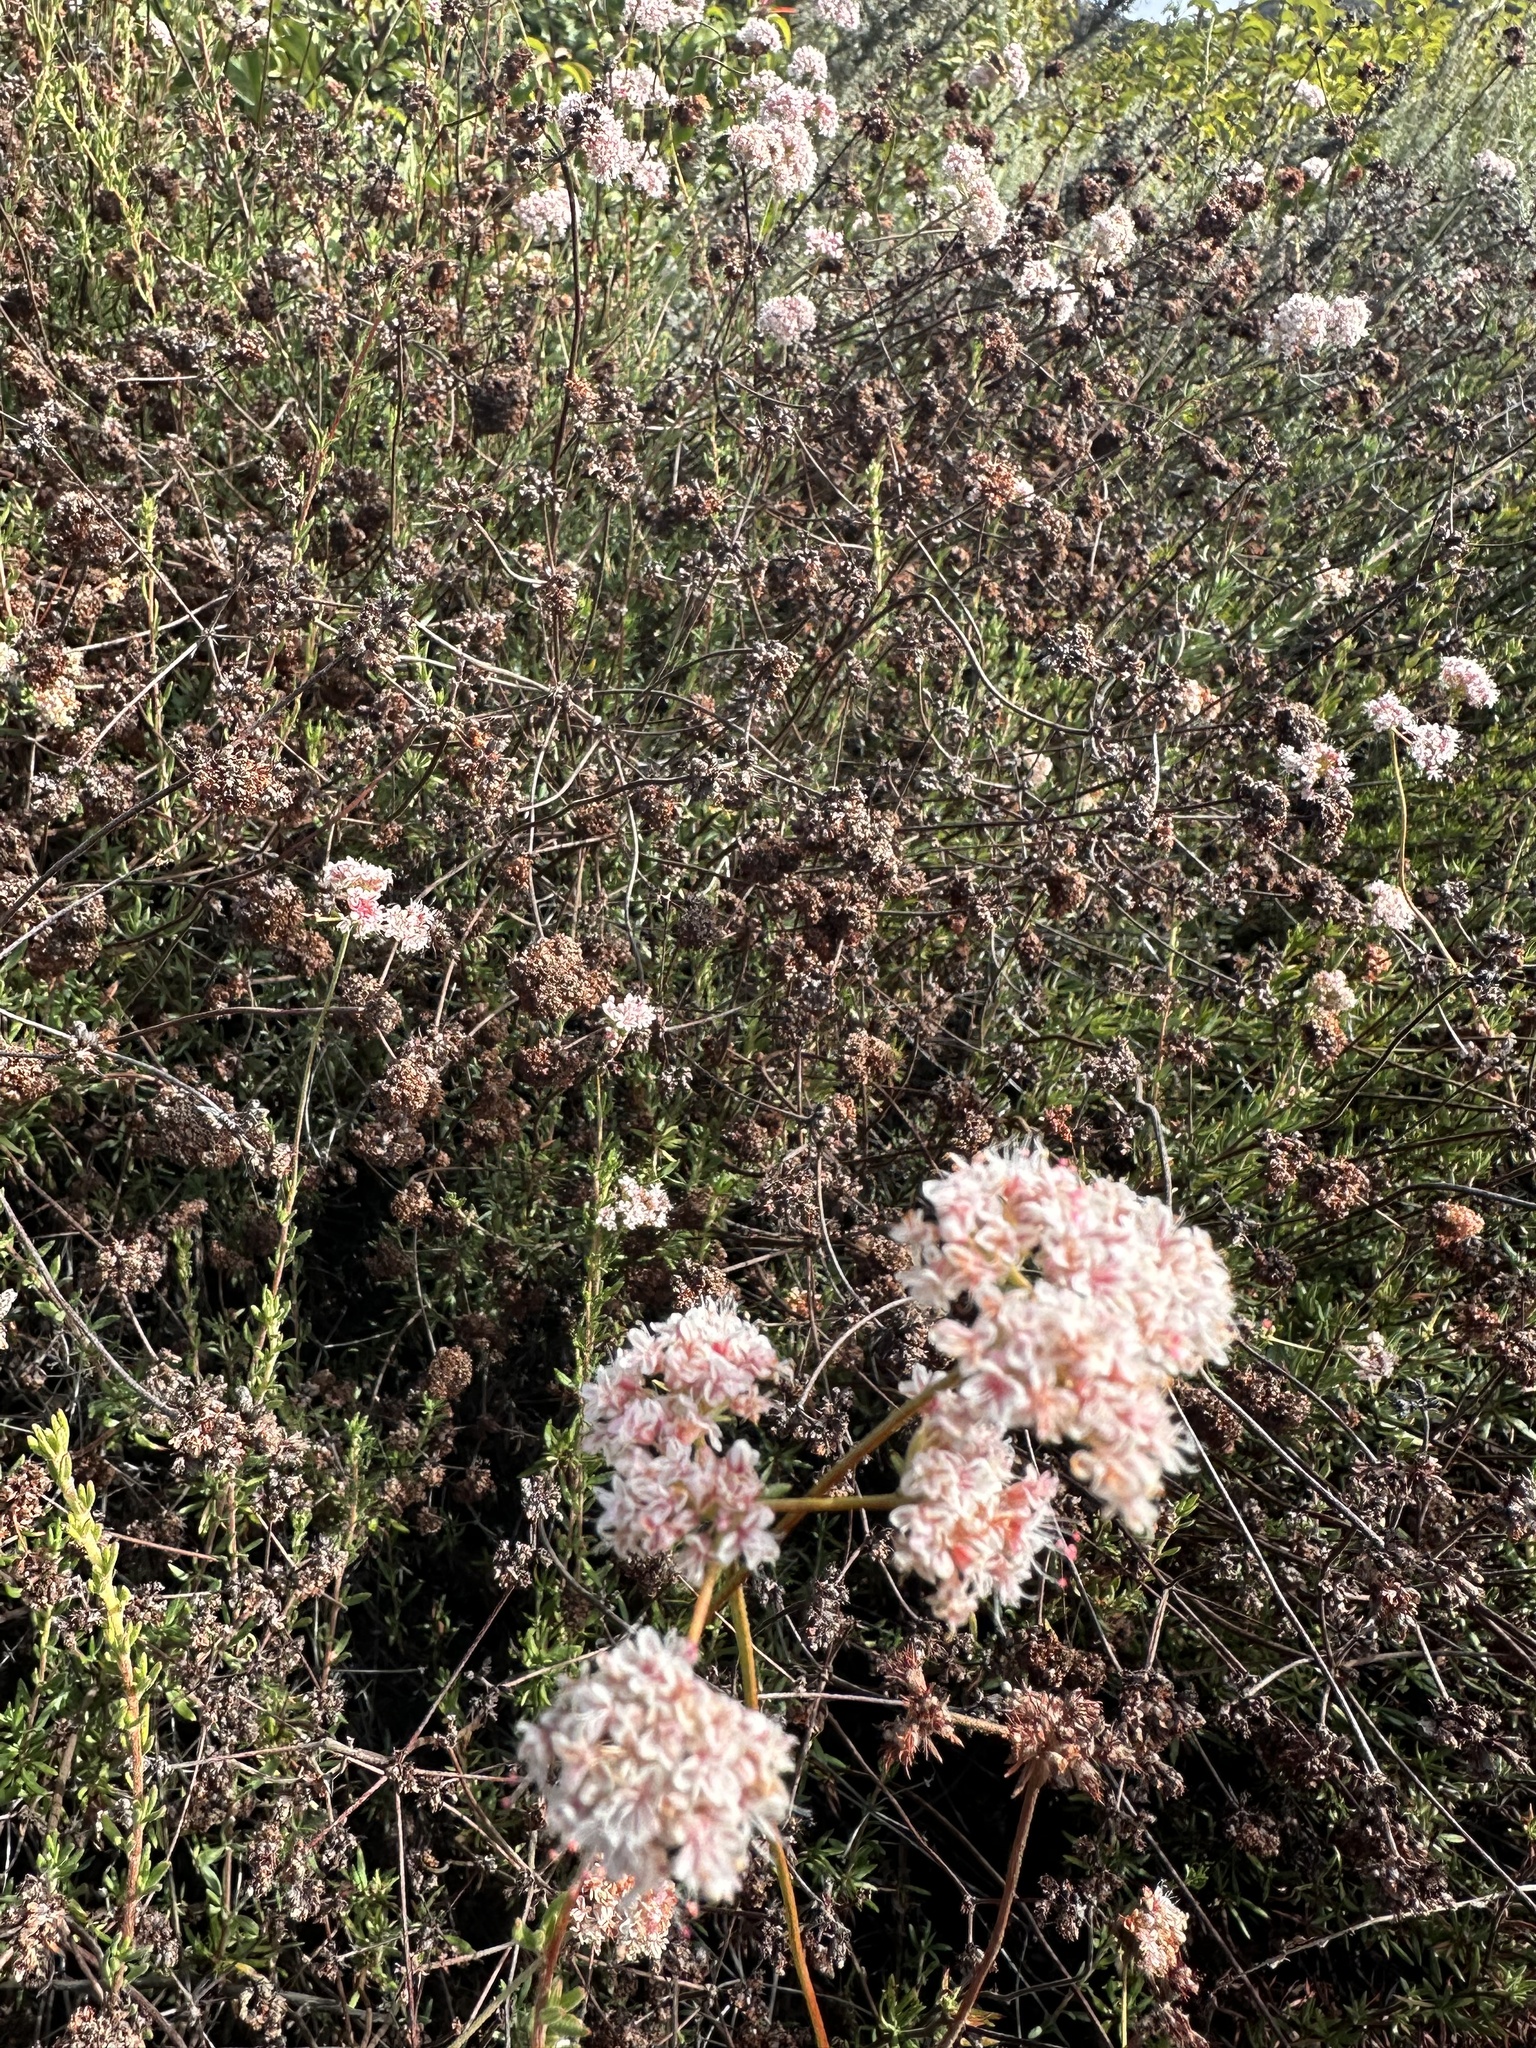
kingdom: Plantae
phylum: Tracheophyta
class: Magnoliopsida
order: Caryophyllales
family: Polygonaceae
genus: Eriogonum
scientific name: Eriogonum fasciculatum
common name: California wild buckwheat
